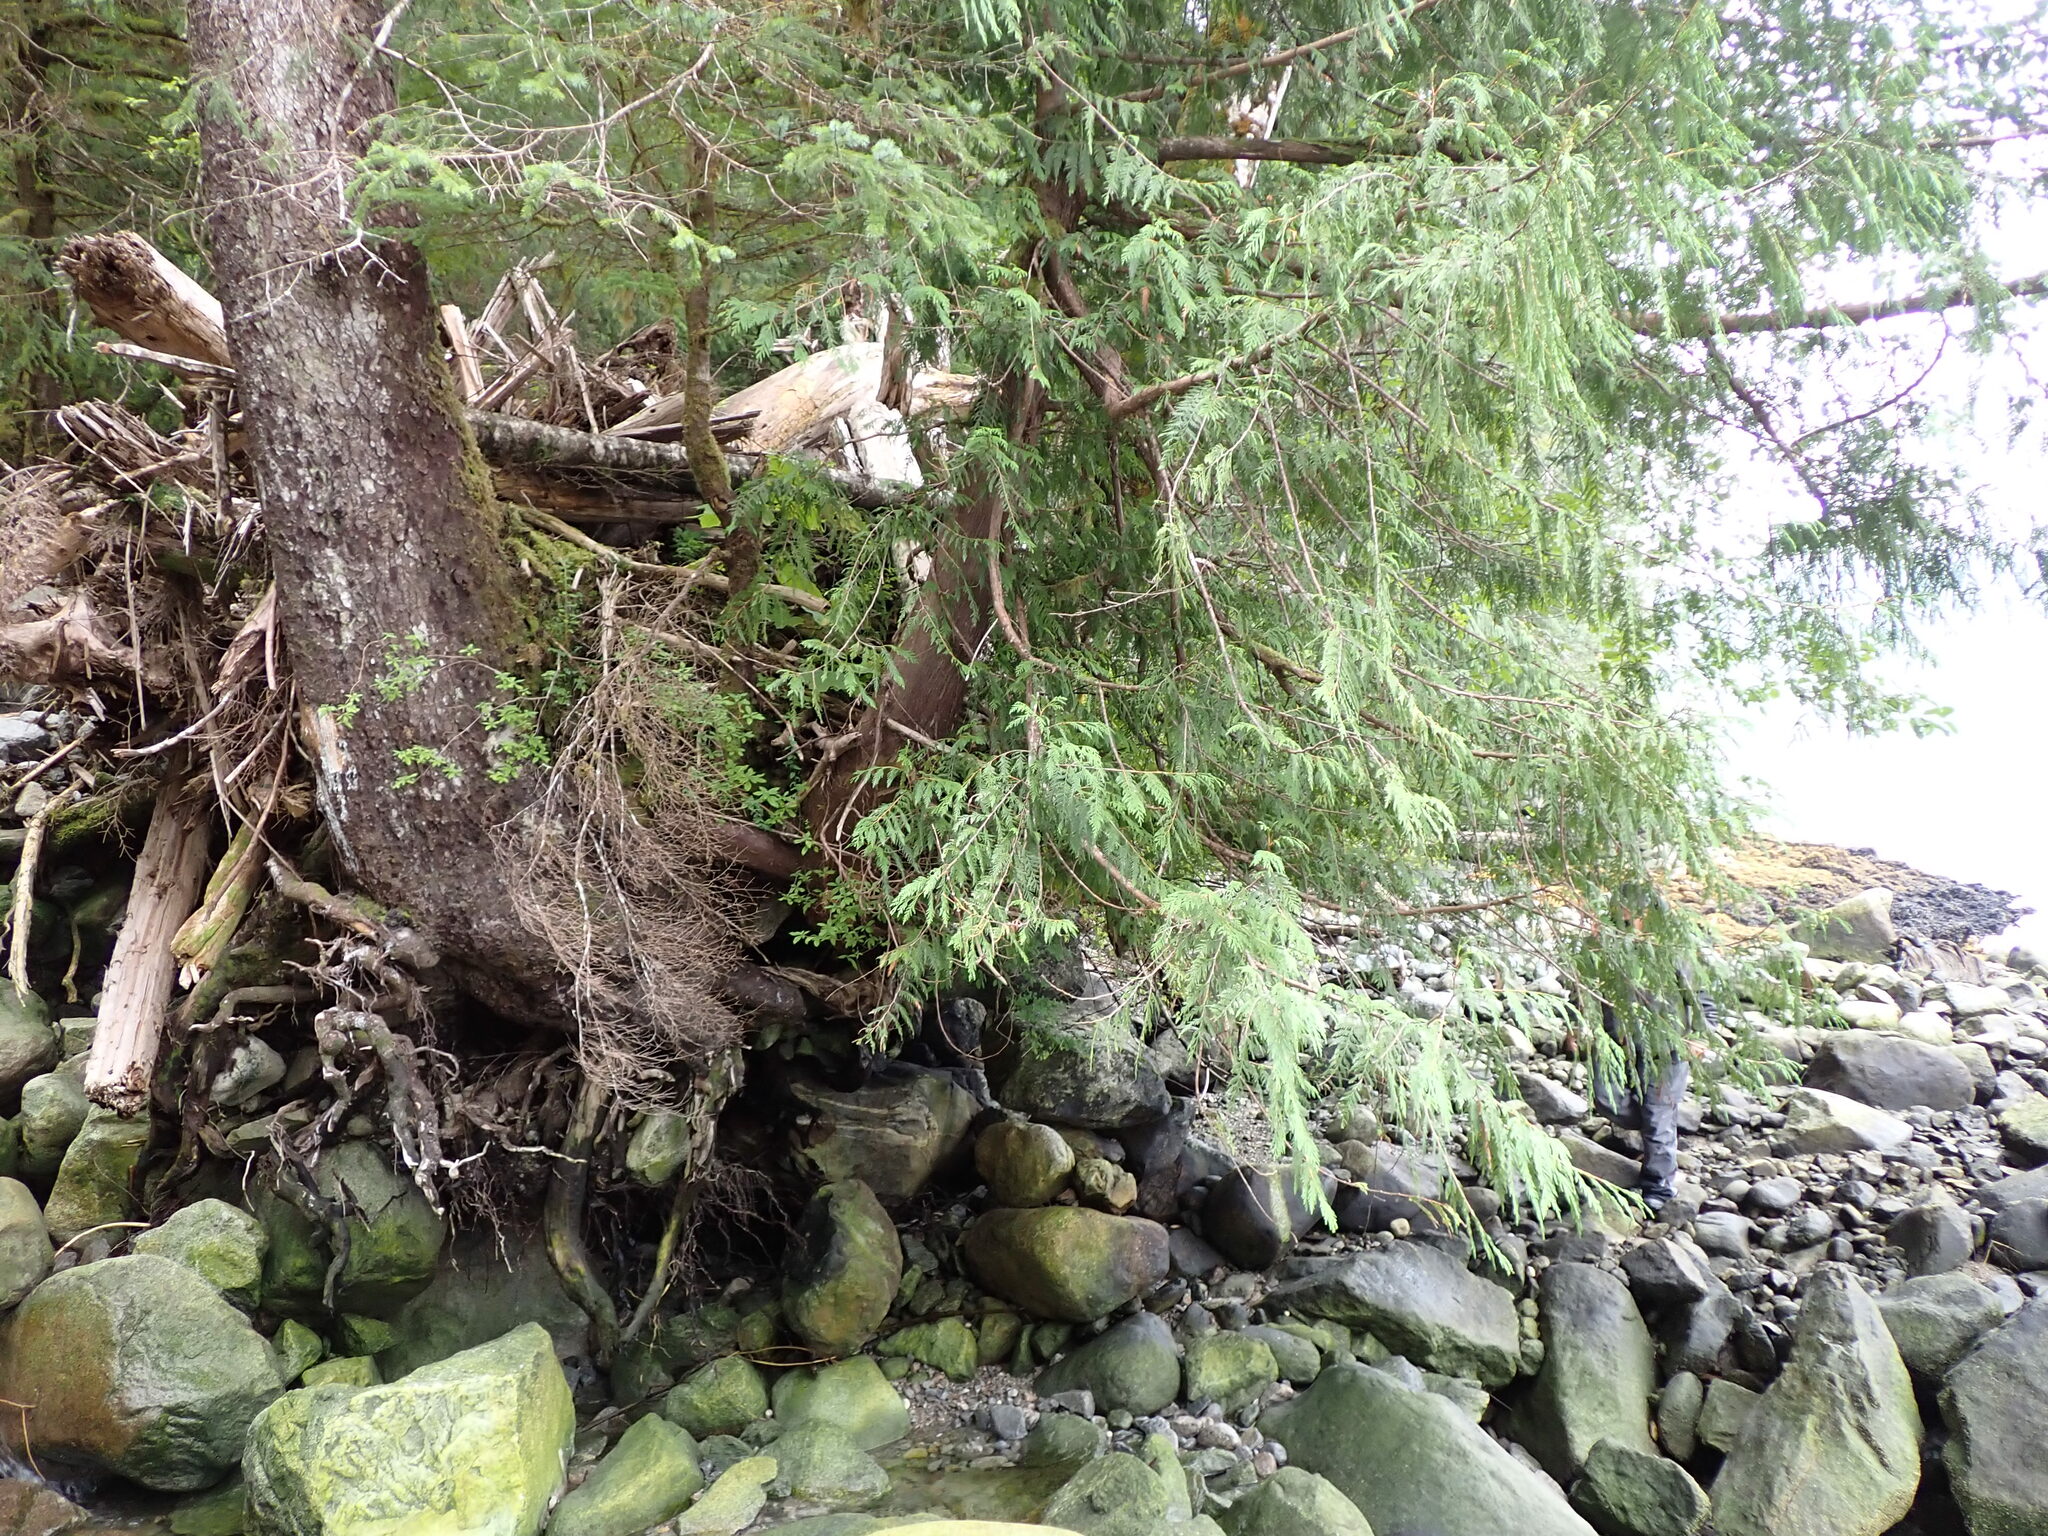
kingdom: Plantae
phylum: Tracheophyta
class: Pinopsida
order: Pinales
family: Cupressaceae
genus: Thuja
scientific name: Thuja plicata
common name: Western red-cedar
